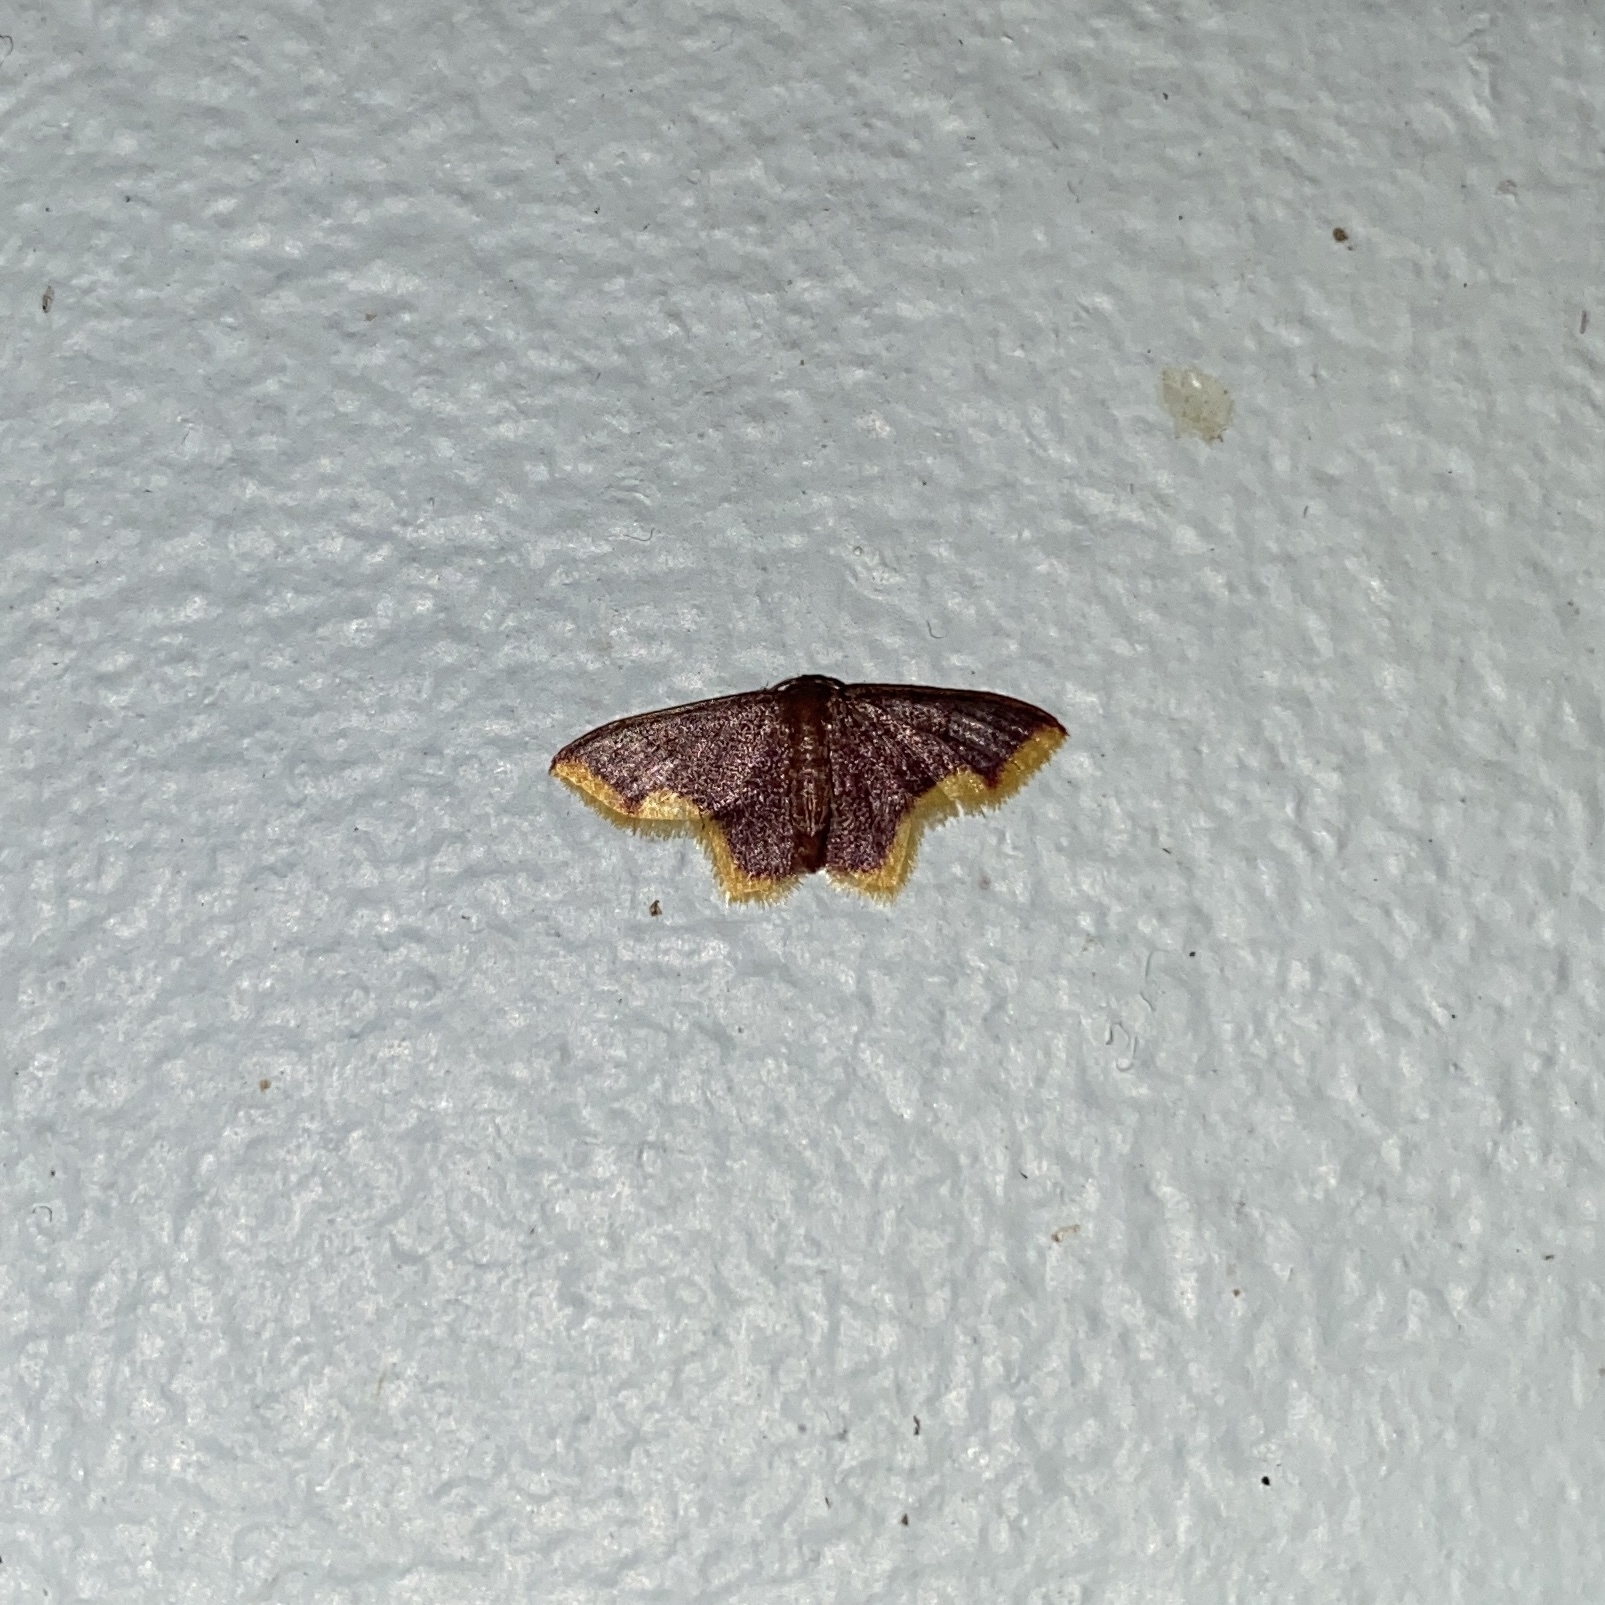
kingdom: Animalia
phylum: Arthropoda
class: Insecta
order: Lepidoptera
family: Geometridae
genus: Idaea
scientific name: Idaea triangularia
